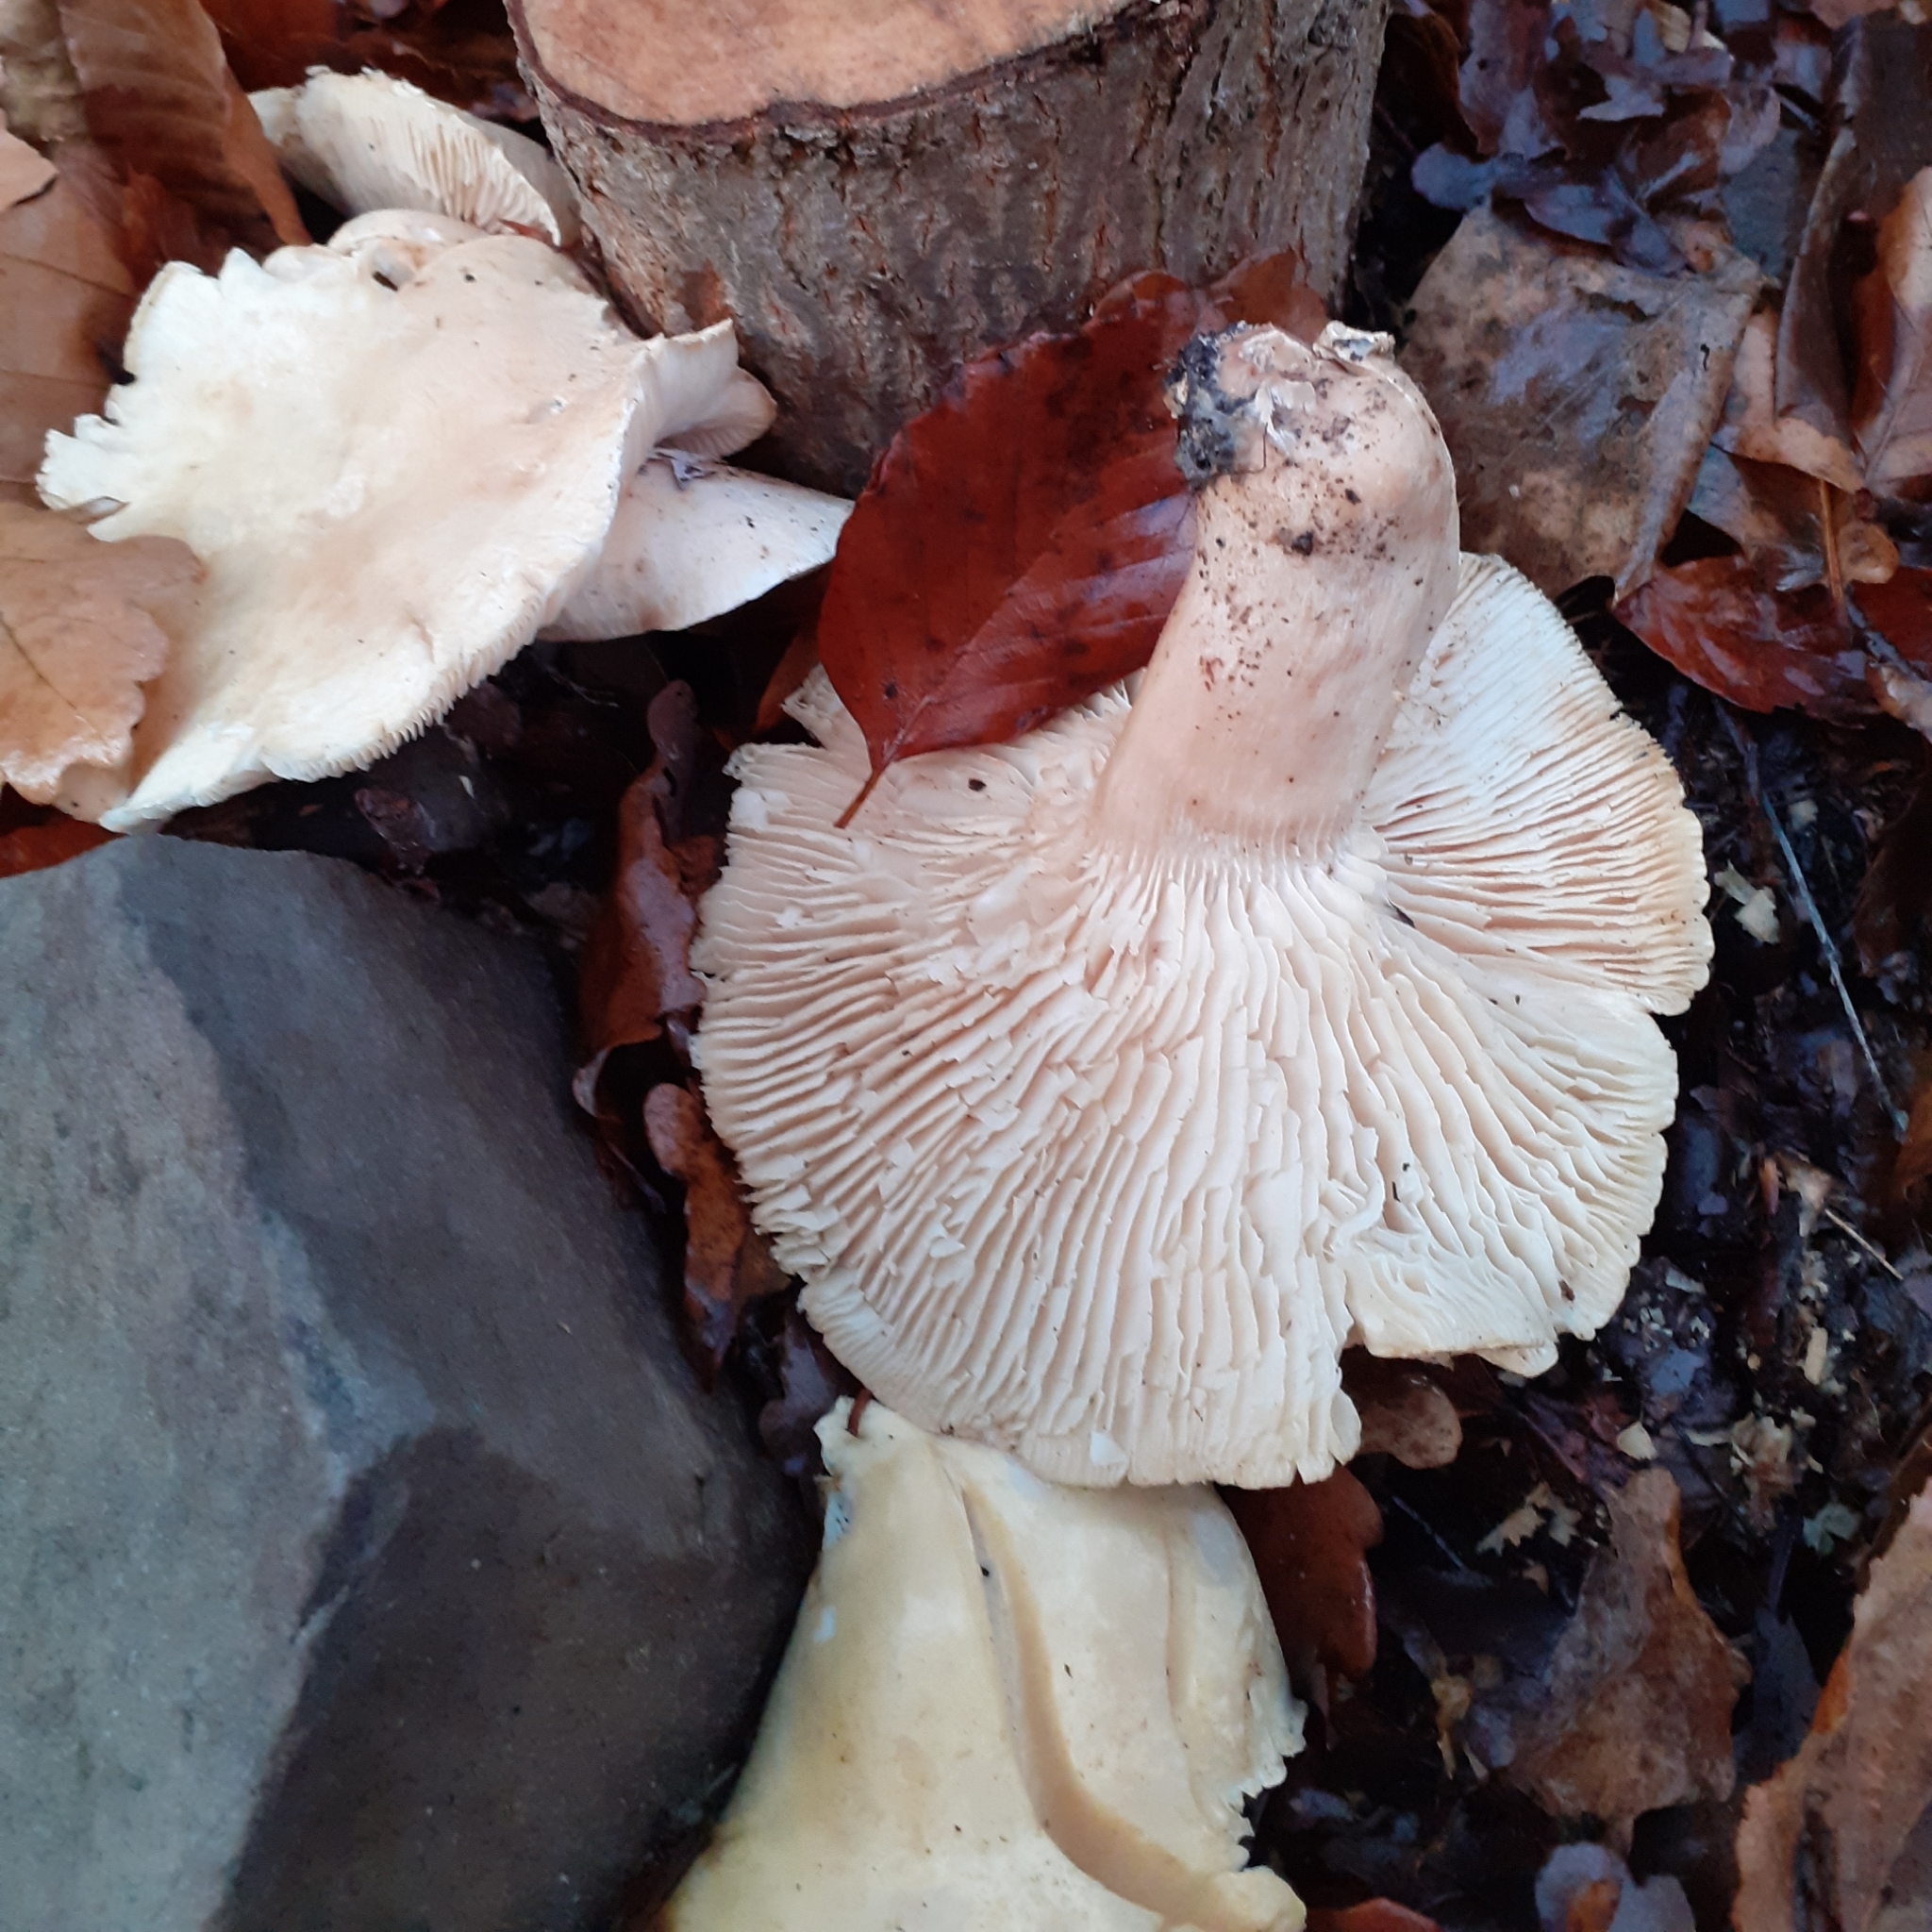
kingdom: Fungi
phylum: Basidiomycota
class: Agaricomycetes
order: Agaricales
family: Tricholomataceae
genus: Clitocybe
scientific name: Clitocybe nebularis
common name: Clouded agaric
